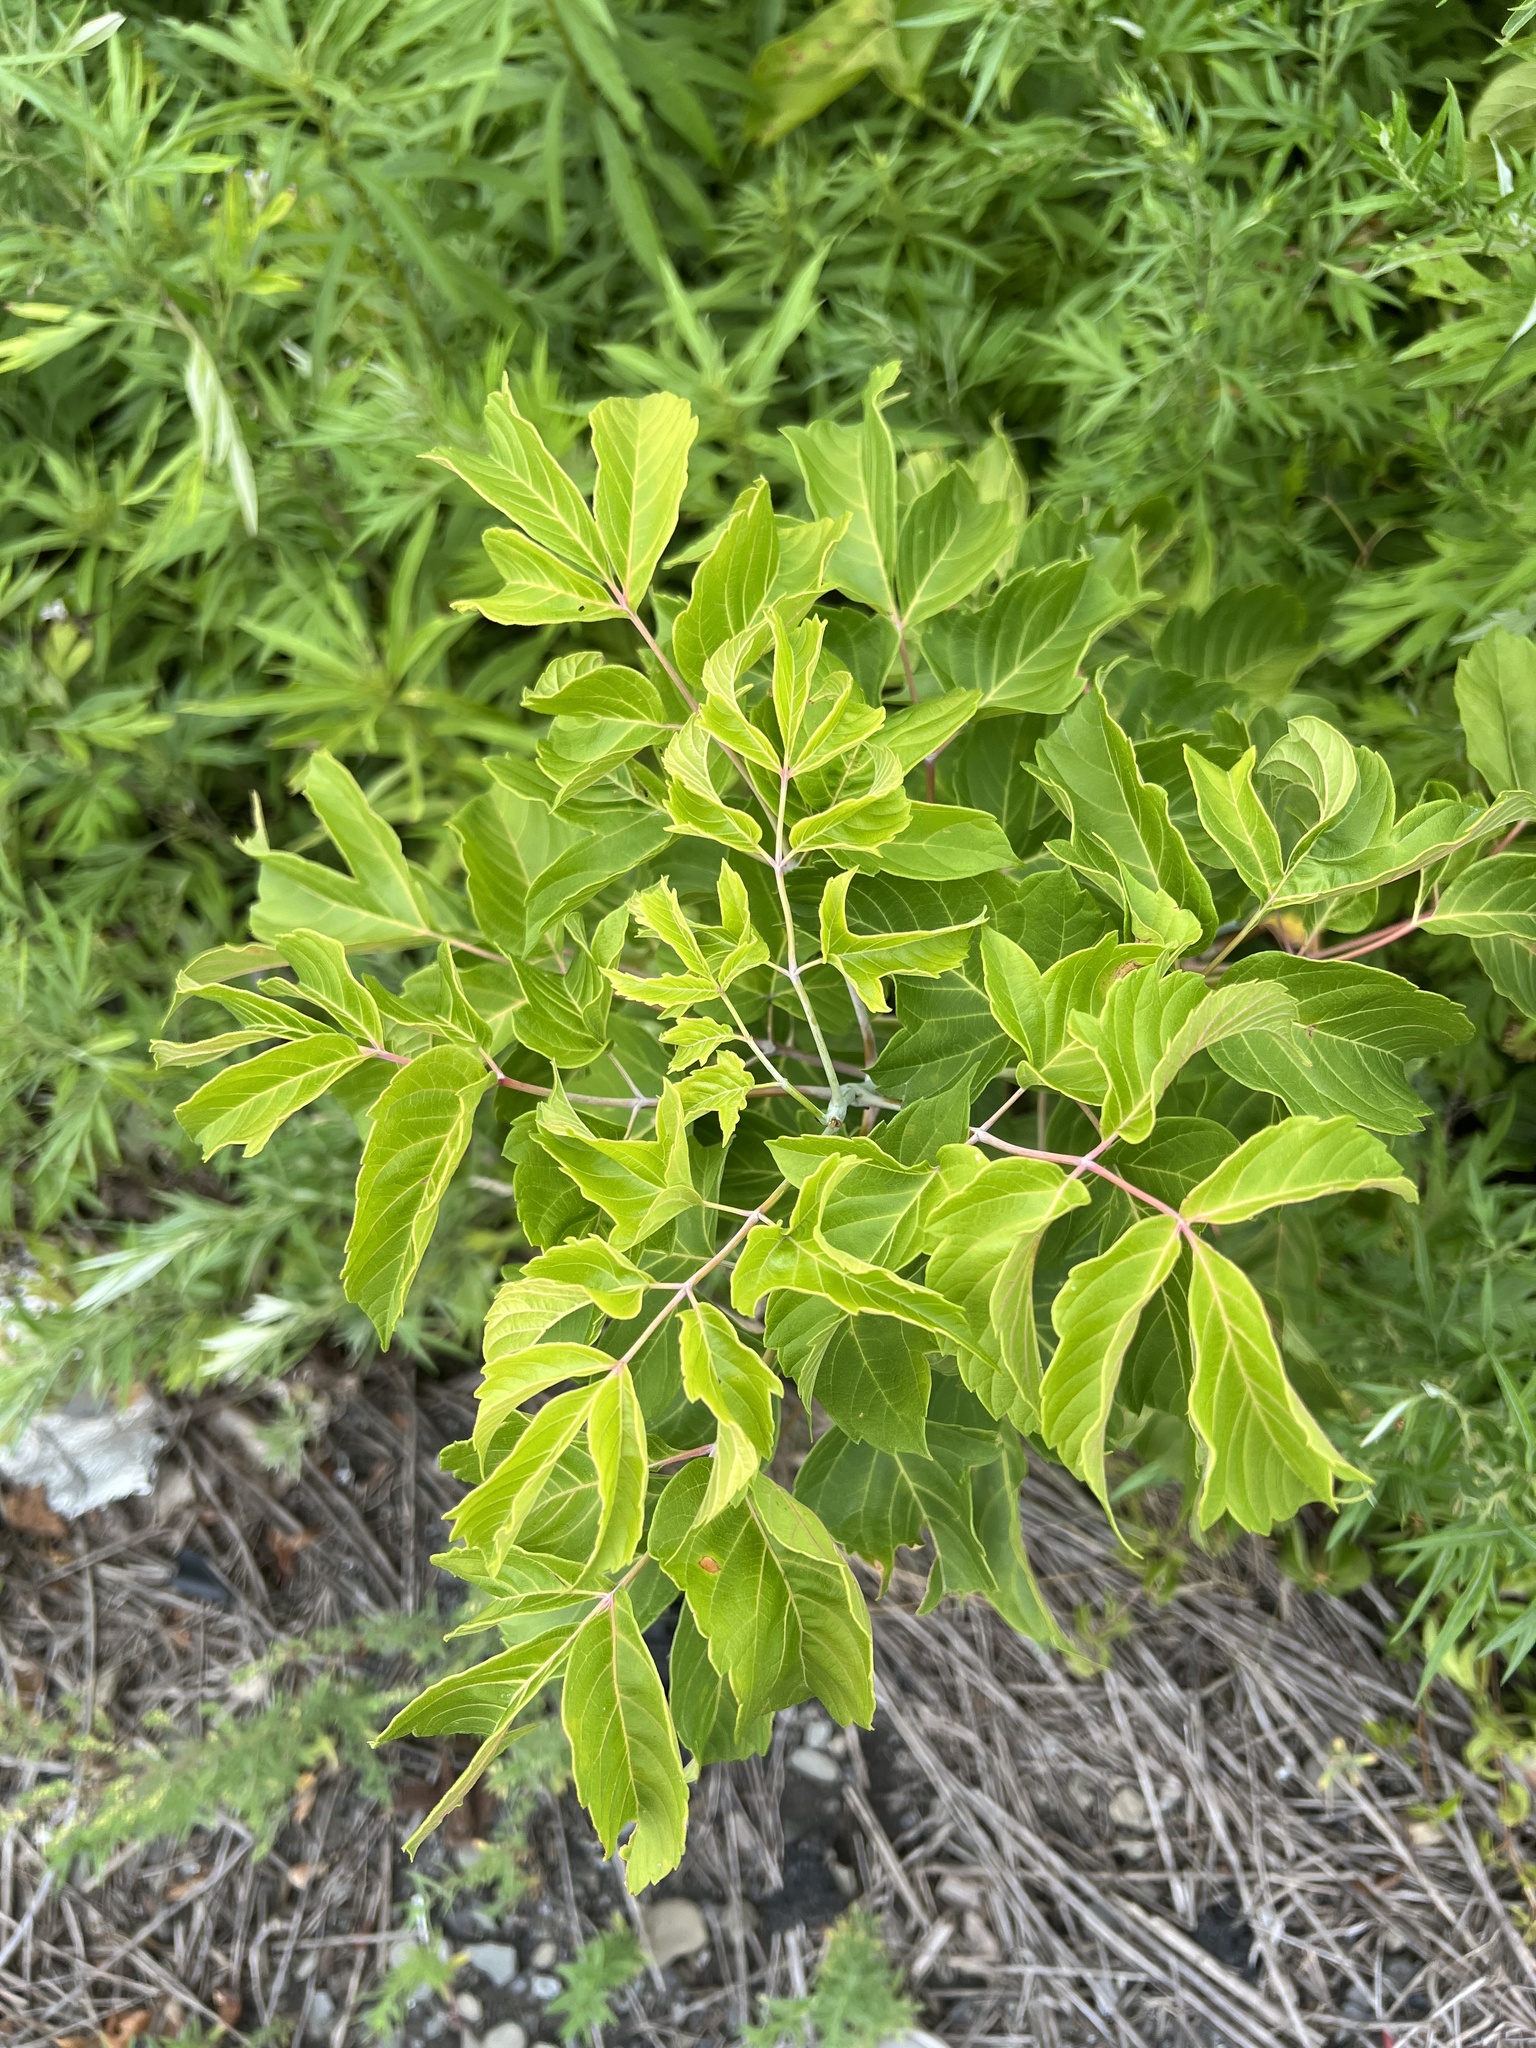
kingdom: Plantae
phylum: Tracheophyta
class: Magnoliopsida
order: Sapindales
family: Sapindaceae
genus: Acer
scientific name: Acer negundo
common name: Ashleaf maple
